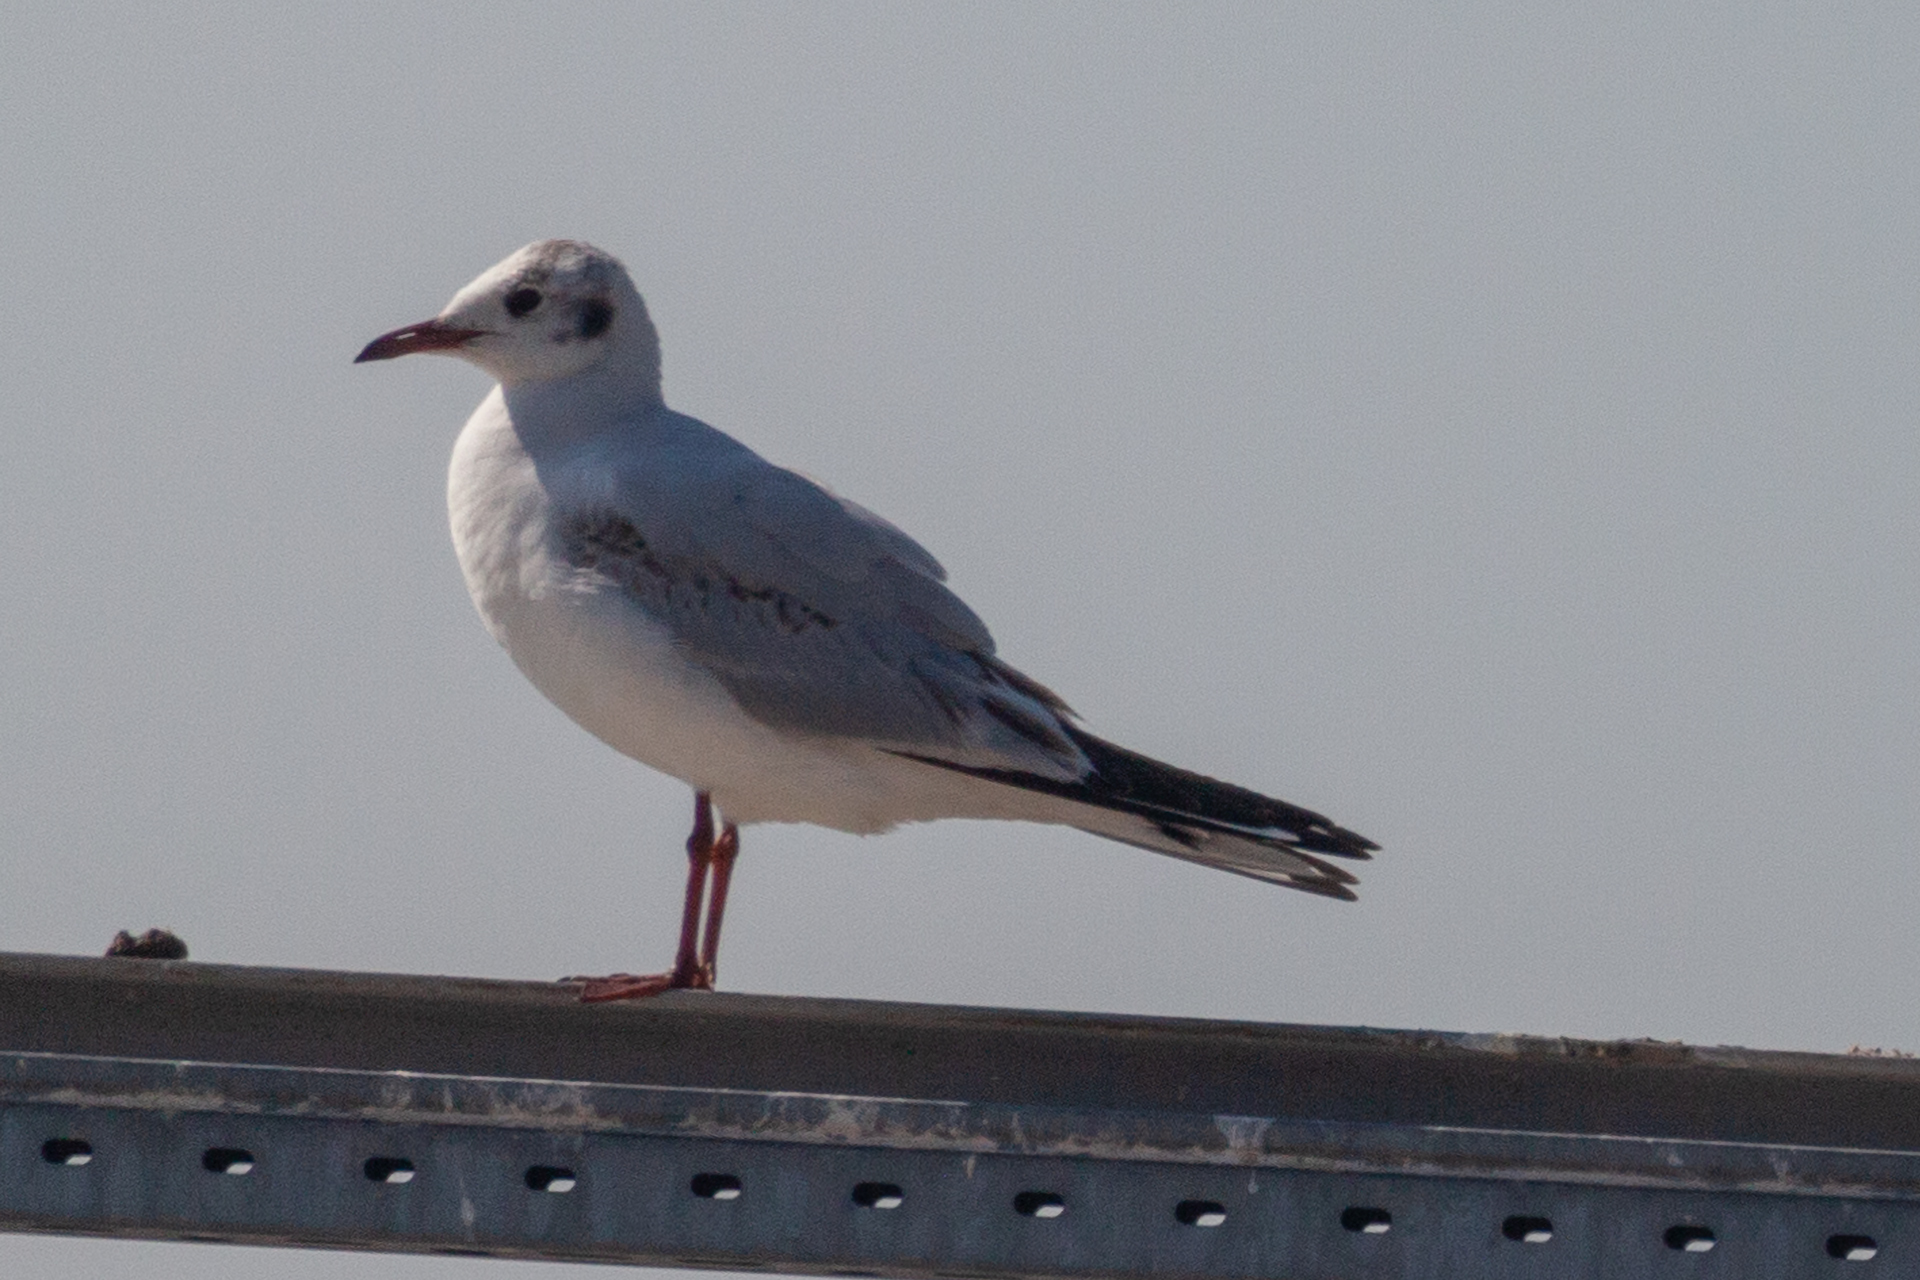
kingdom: Animalia
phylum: Chordata
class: Aves
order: Charadriiformes
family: Laridae
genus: Chroicocephalus
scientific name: Chroicocephalus ridibundus
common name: Black-headed gull
